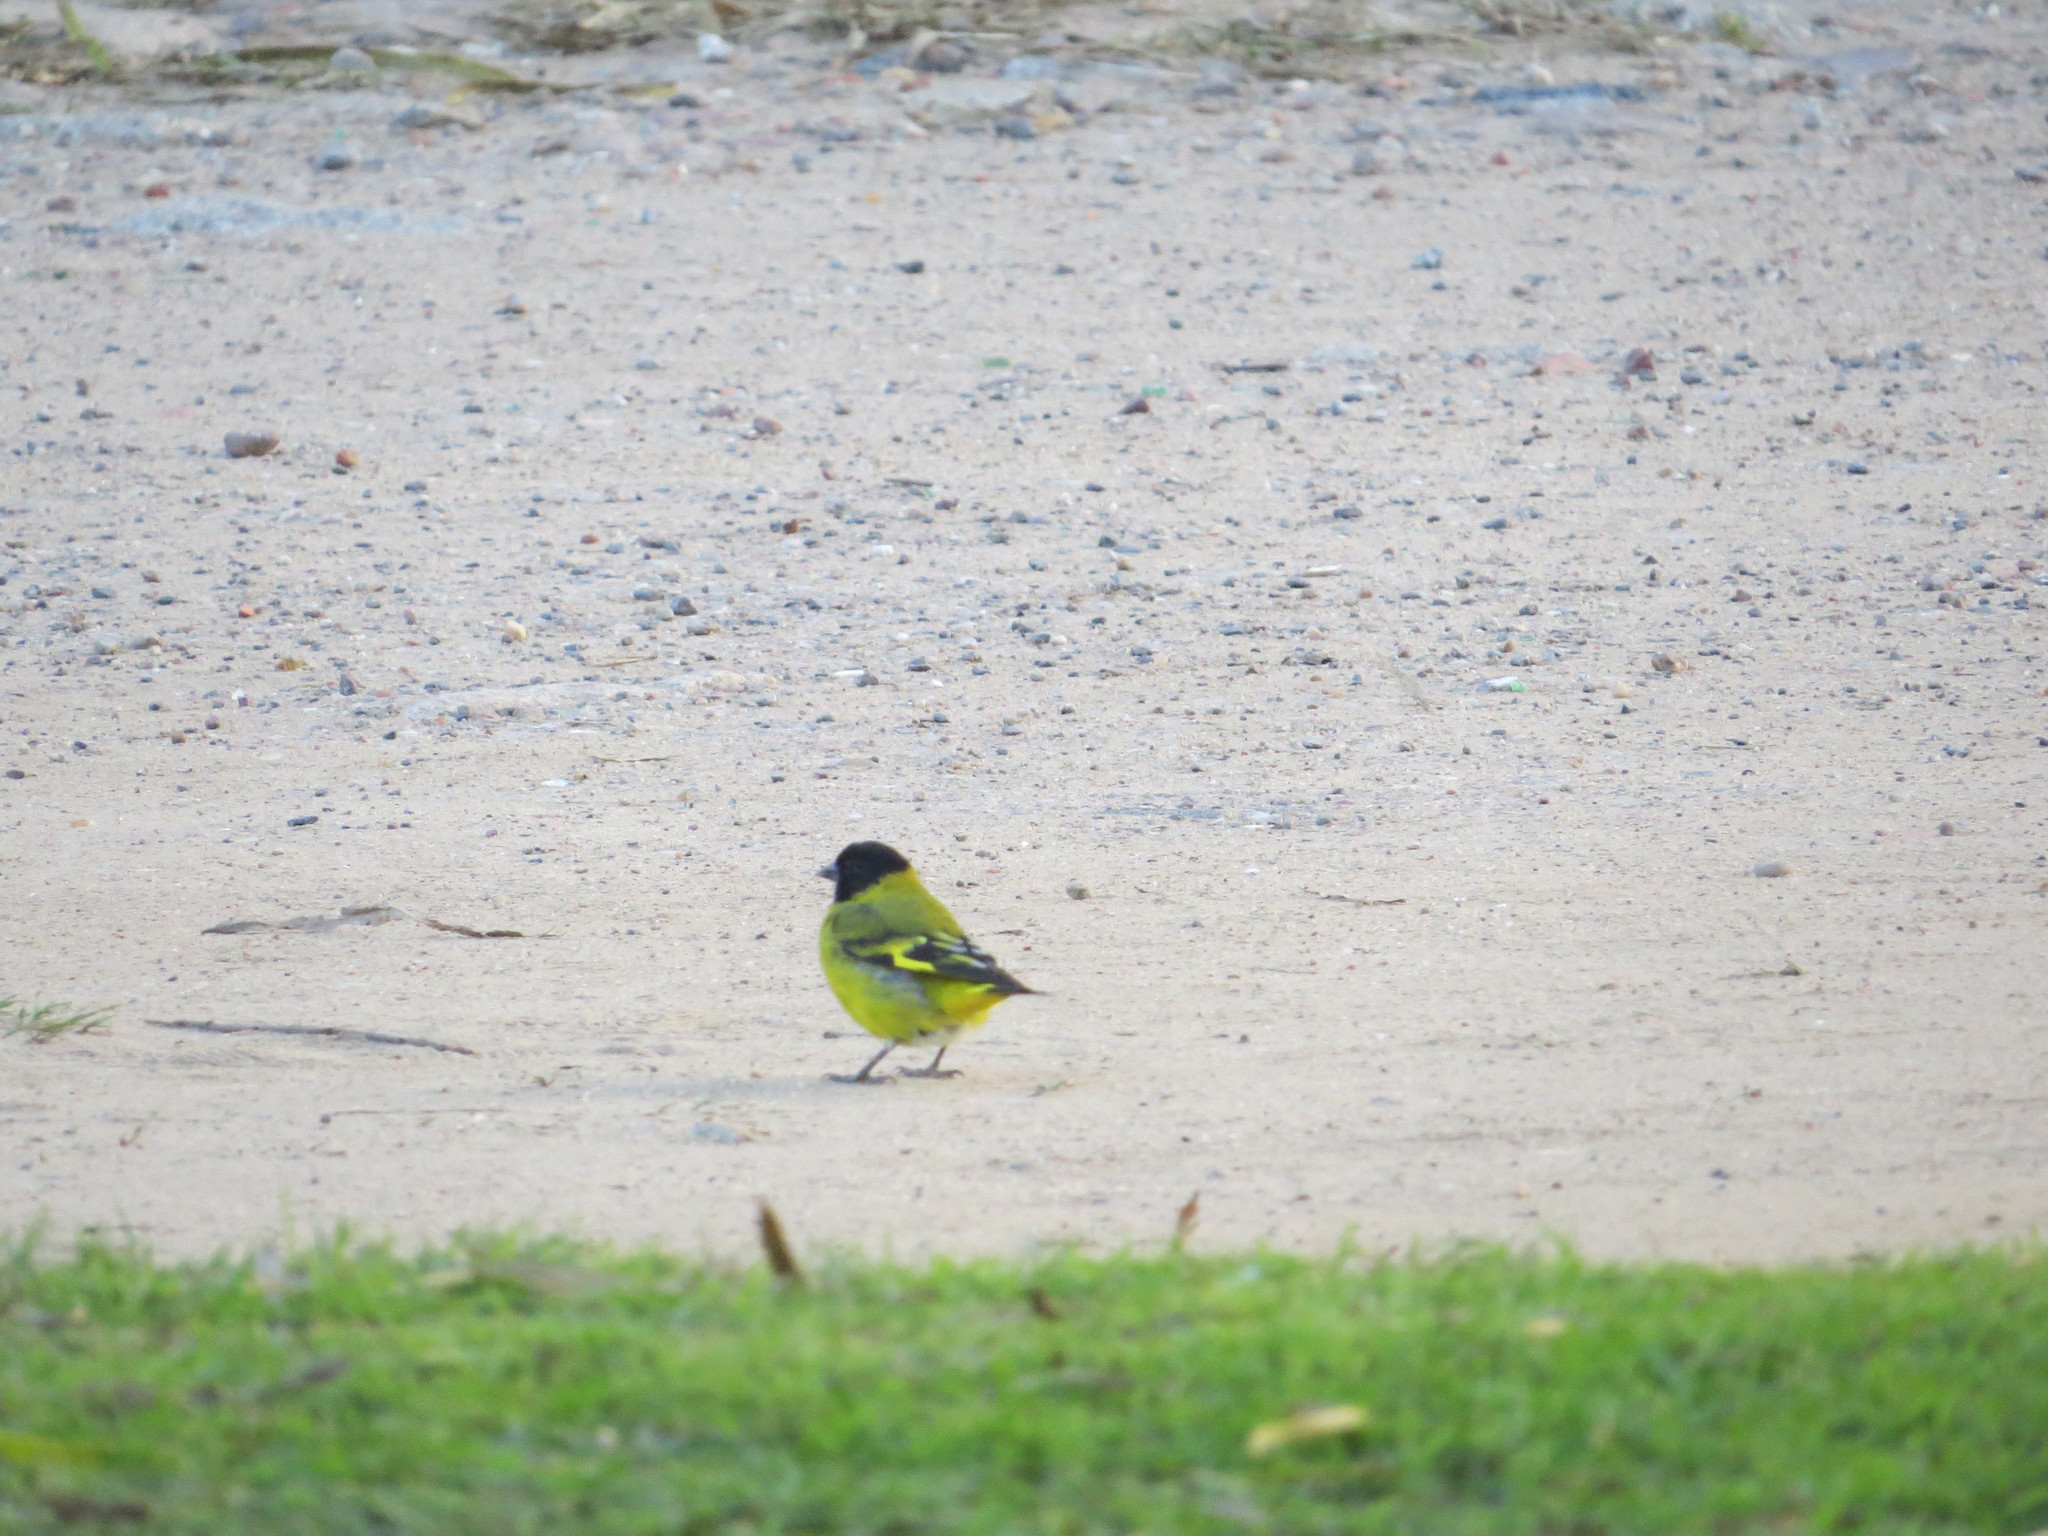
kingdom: Animalia
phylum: Chordata
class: Aves
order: Passeriformes
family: Fringillidae
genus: Spinus
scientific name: Spinus magellanicus
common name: Hooded siskin
